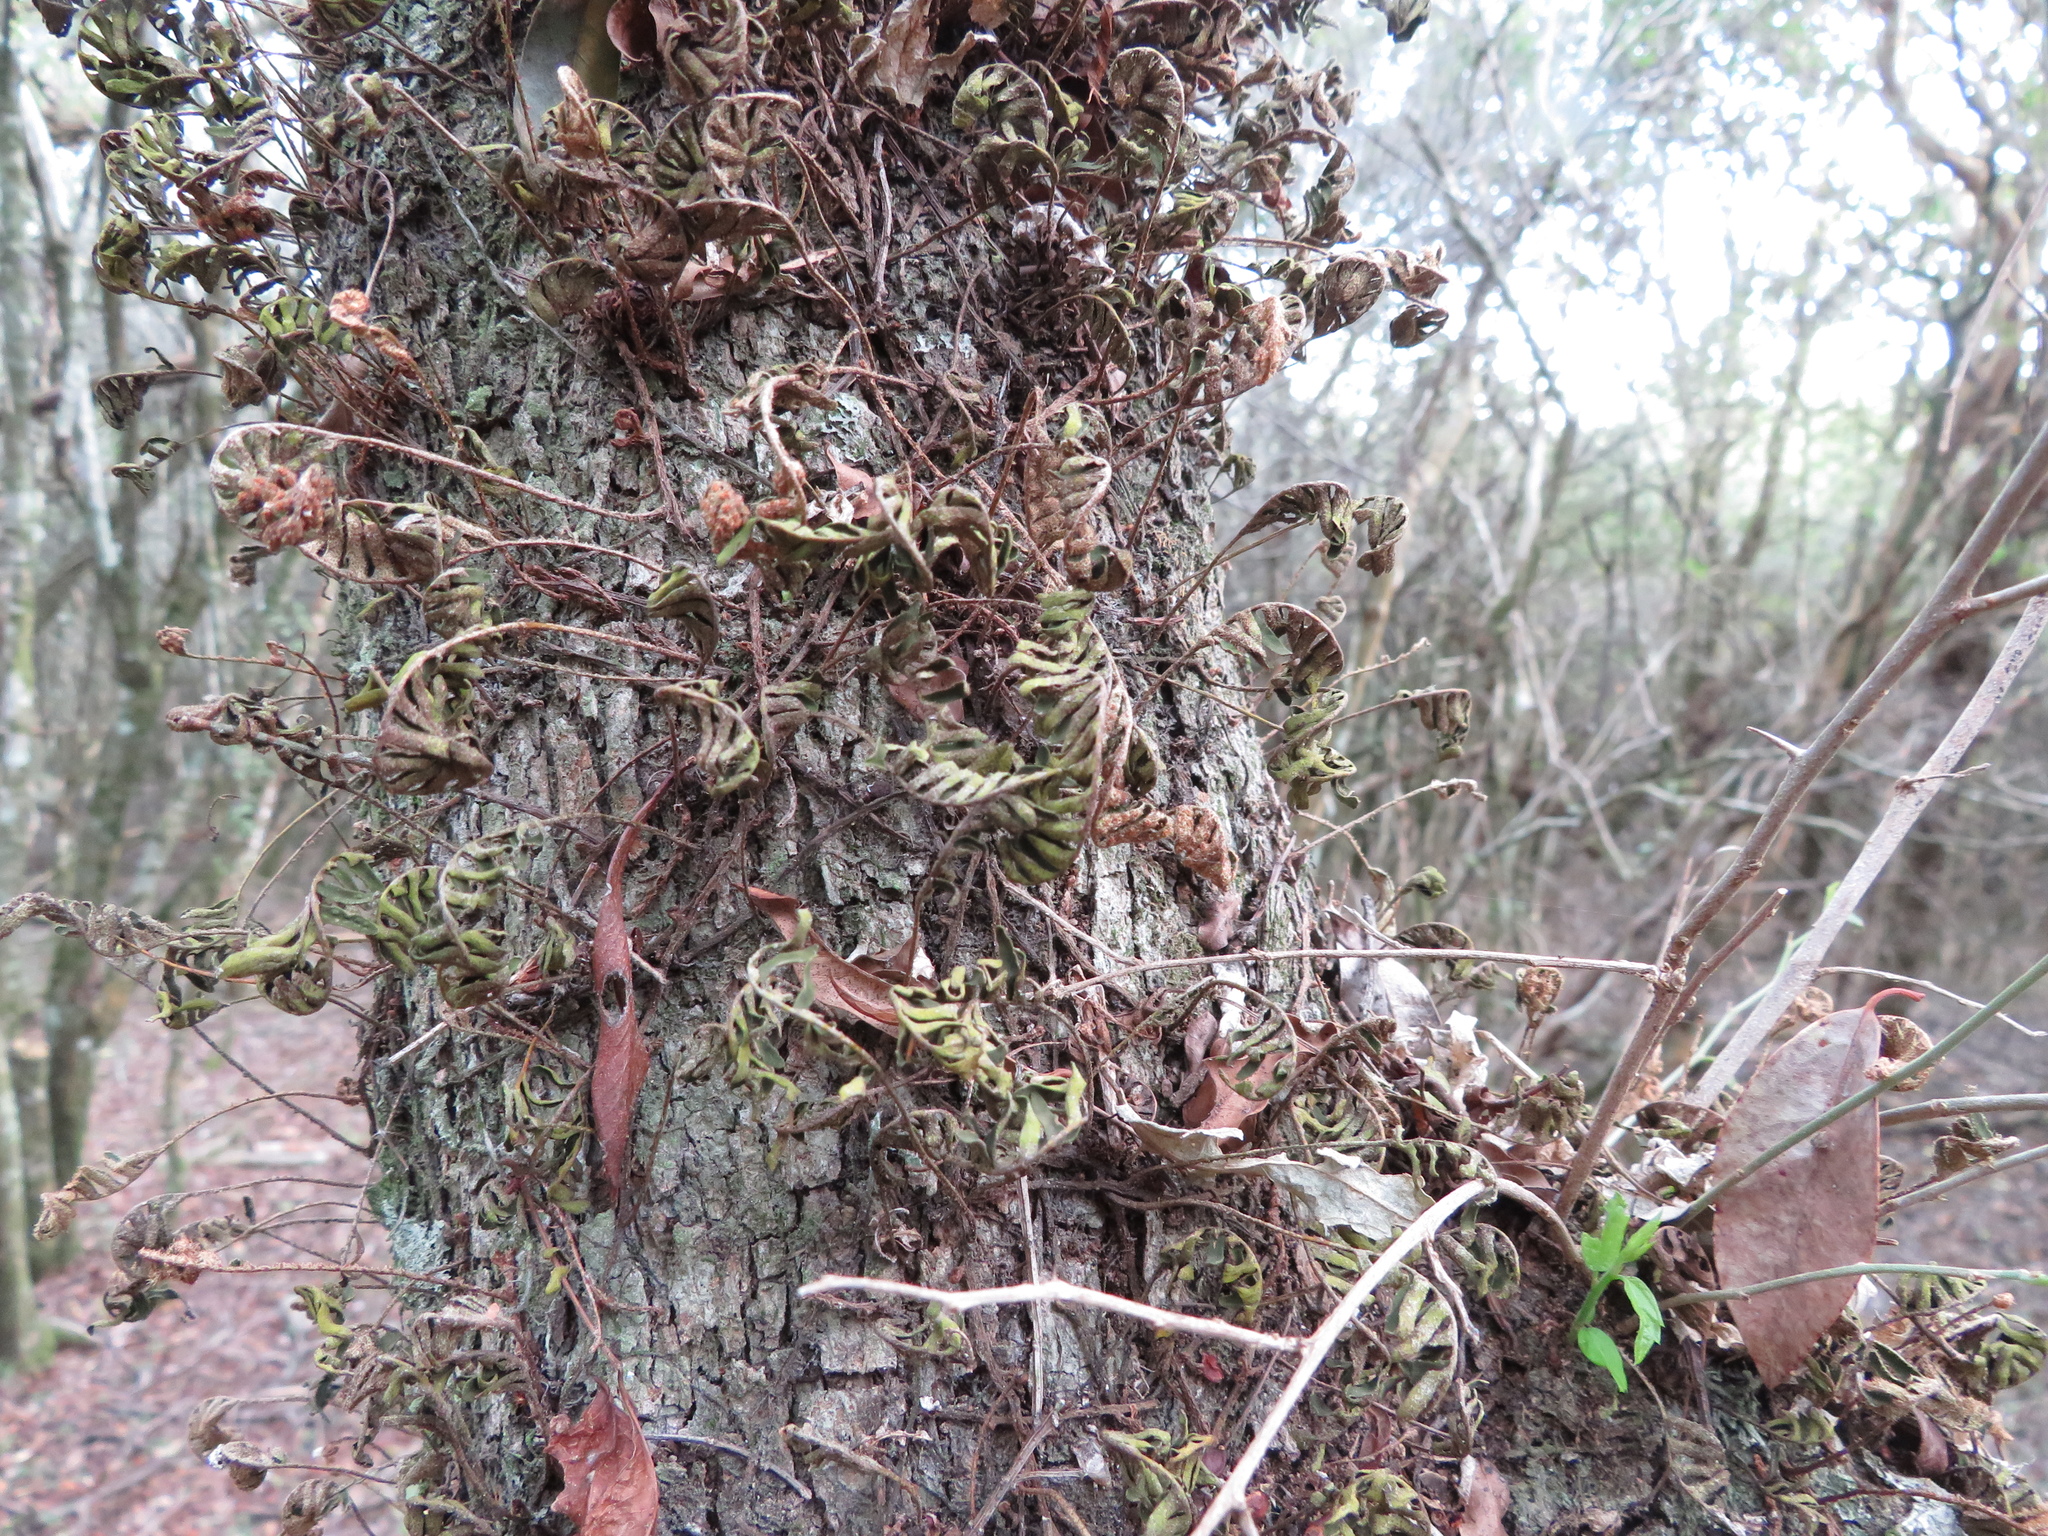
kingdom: Plantae
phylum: Tracheophyta
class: Polypodiopsida
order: Polypodiales
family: Polypodiaceae
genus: Pleopeltis
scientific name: Pleopeltis minima
